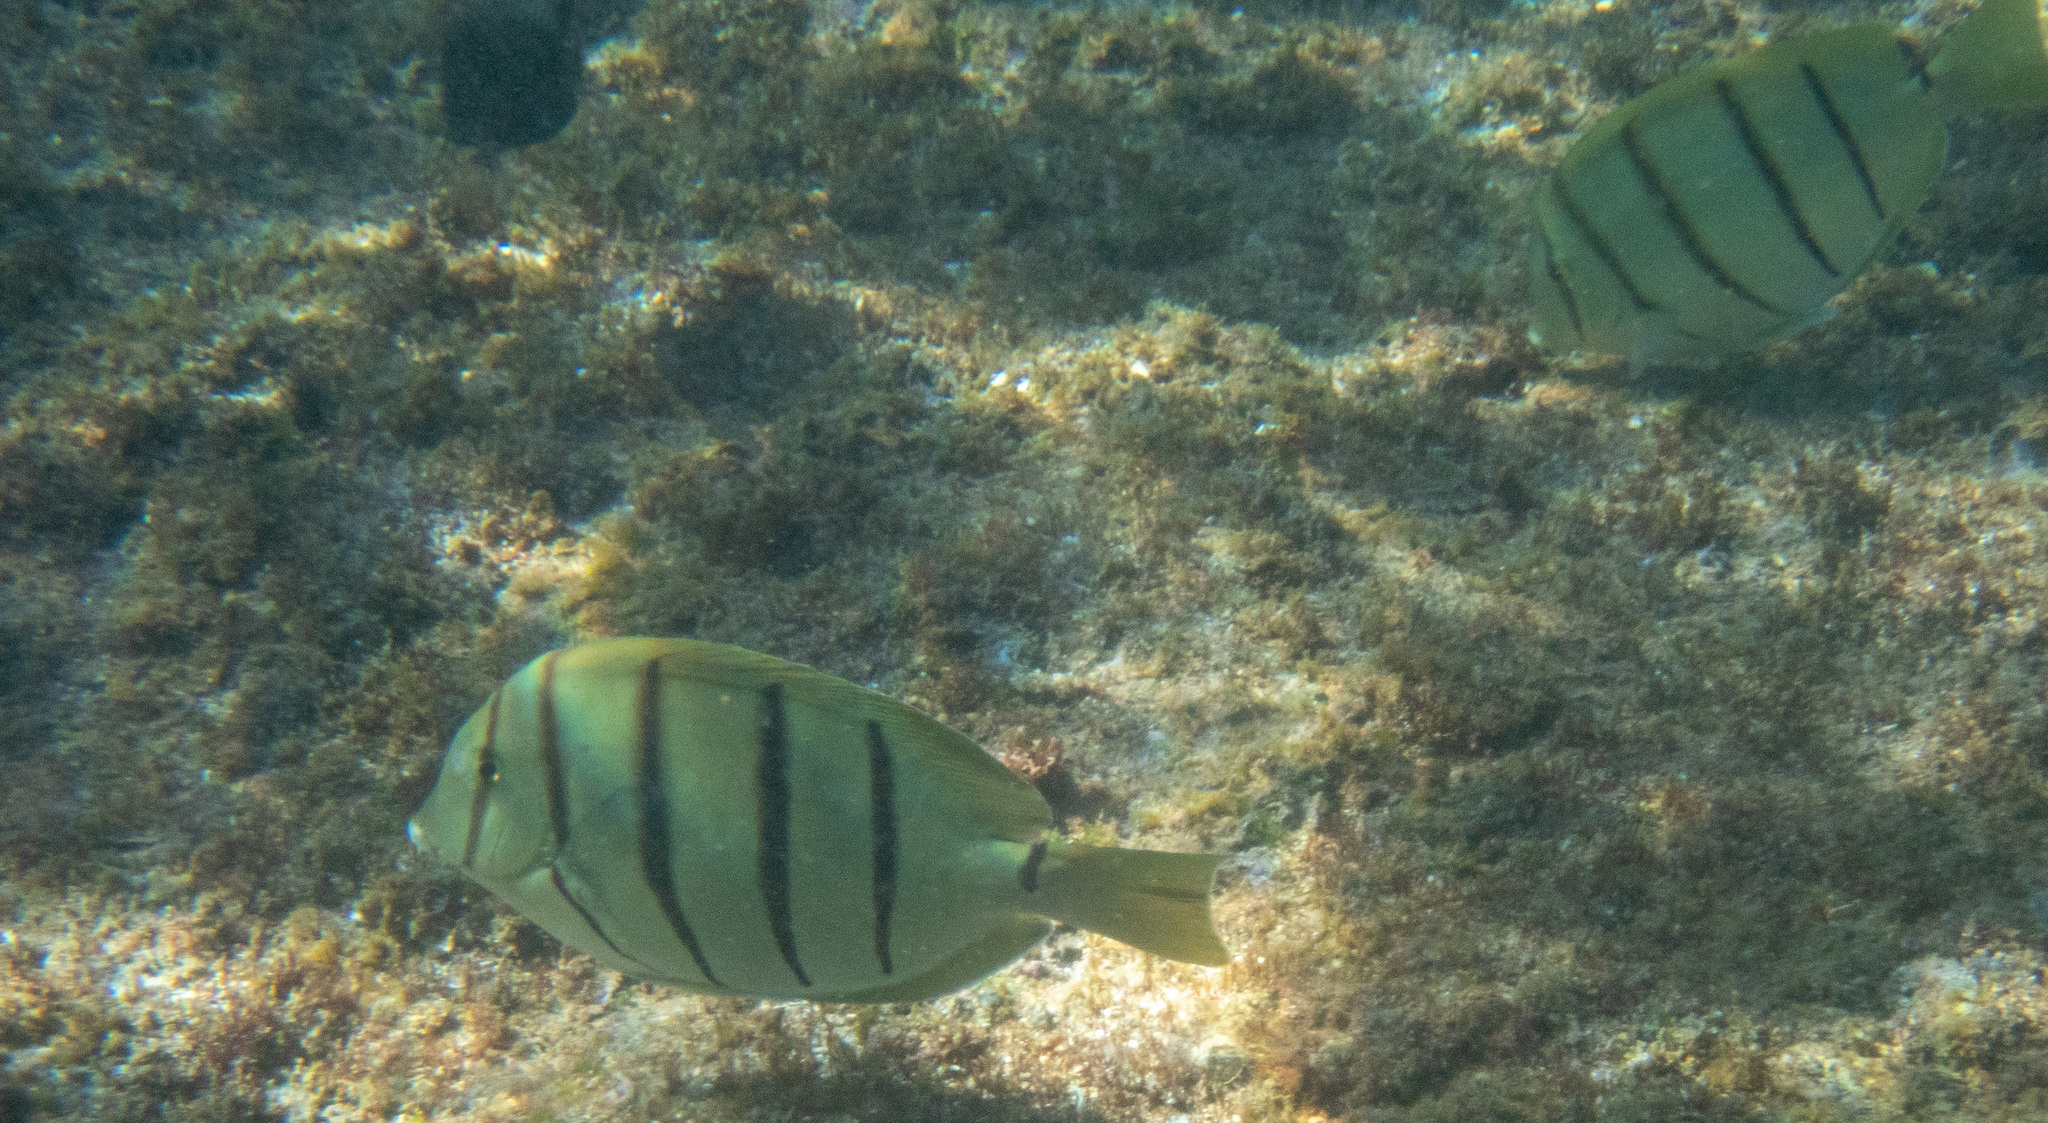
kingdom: Animalia
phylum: Chordata
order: Perciformes
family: Acanthuridae
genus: Acanthurus
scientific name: Acanthurus triostegus
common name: Convict surgeonfish
